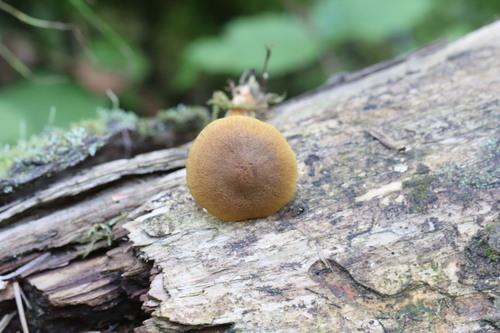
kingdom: Fungi
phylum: Basidiomycota
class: Agaricomycetes
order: Agaricales
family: Cortinariaceae
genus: Cortinarius
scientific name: Cortinarius croceus
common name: Saffron webcap
